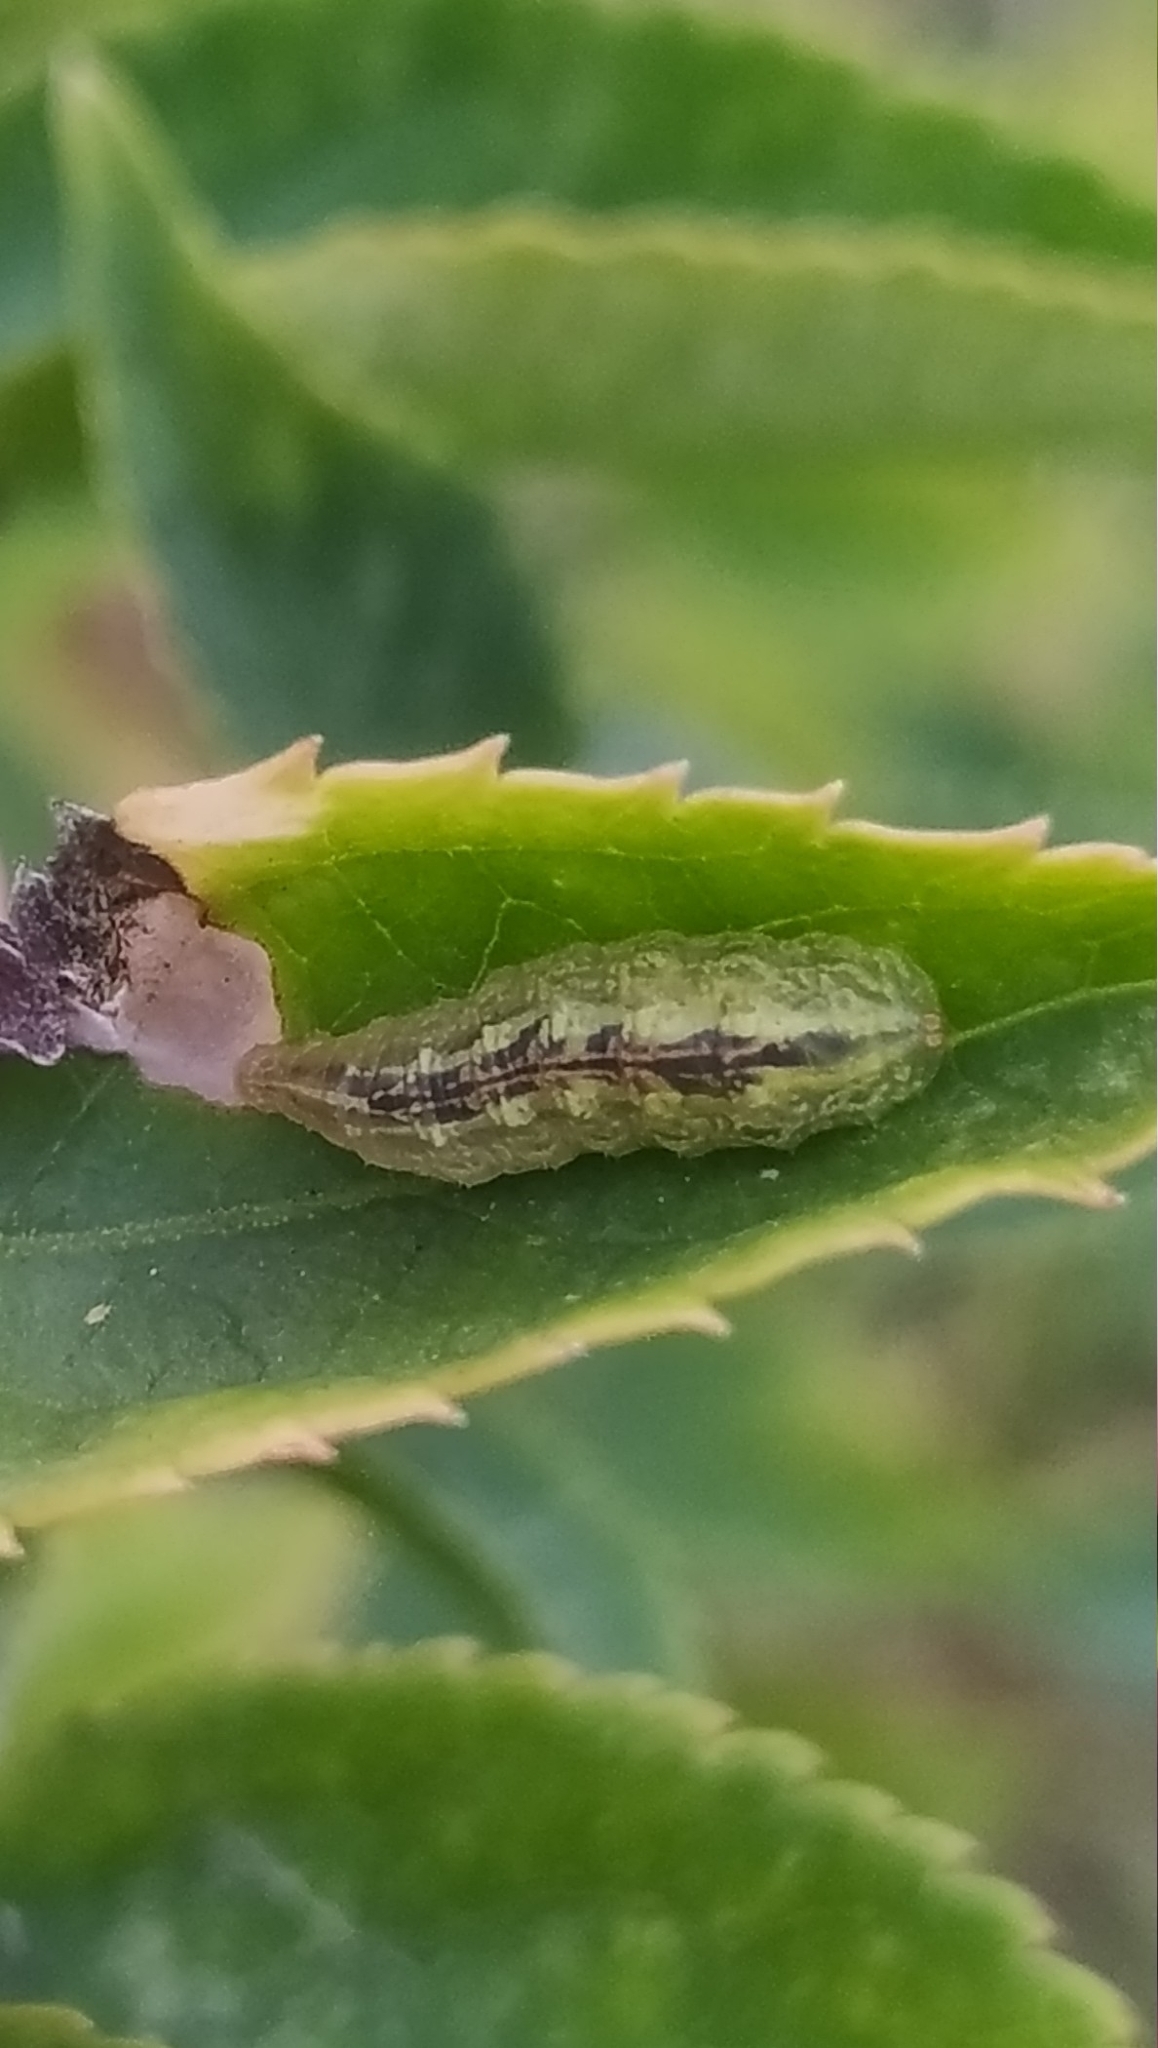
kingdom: Animalia
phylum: Arthropoda
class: Insecta
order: Diptera
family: Syrphidae
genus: Syrphus
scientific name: Syrphus
